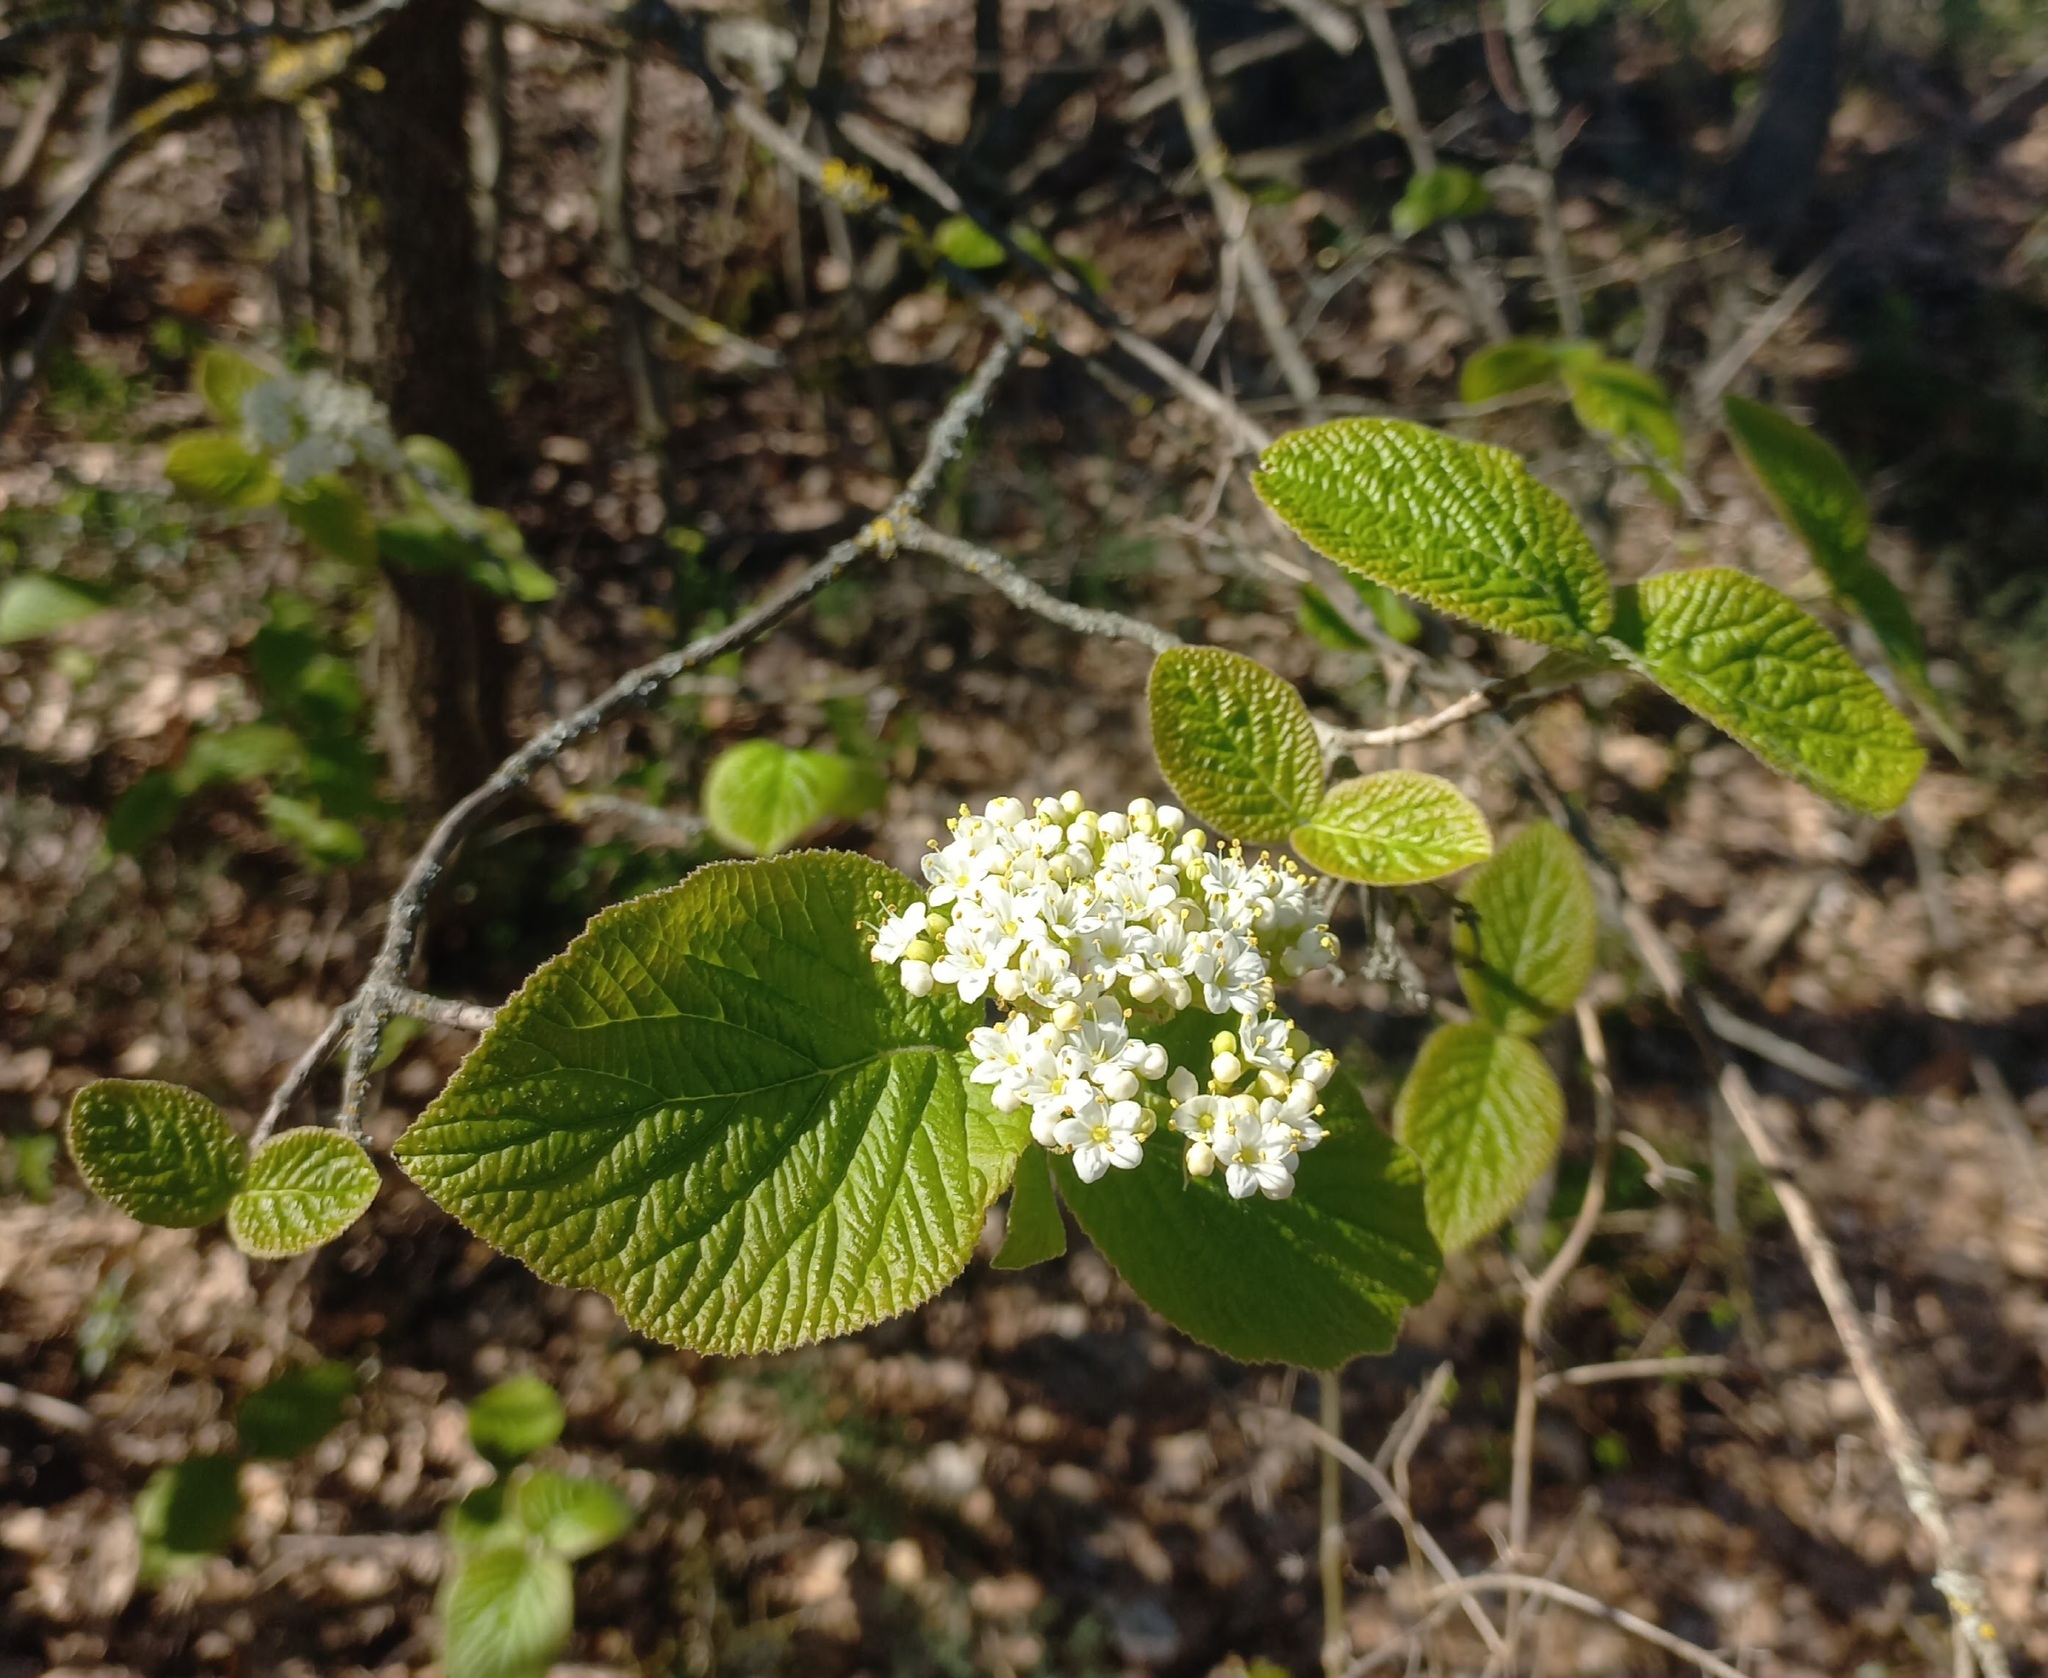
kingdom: Plantae
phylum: Tracheophyta
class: Magnoliopsida
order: Dipsacales
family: Viburnaceae
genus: Viburnum
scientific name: Viburnum lantana
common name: Wayfaring tree
